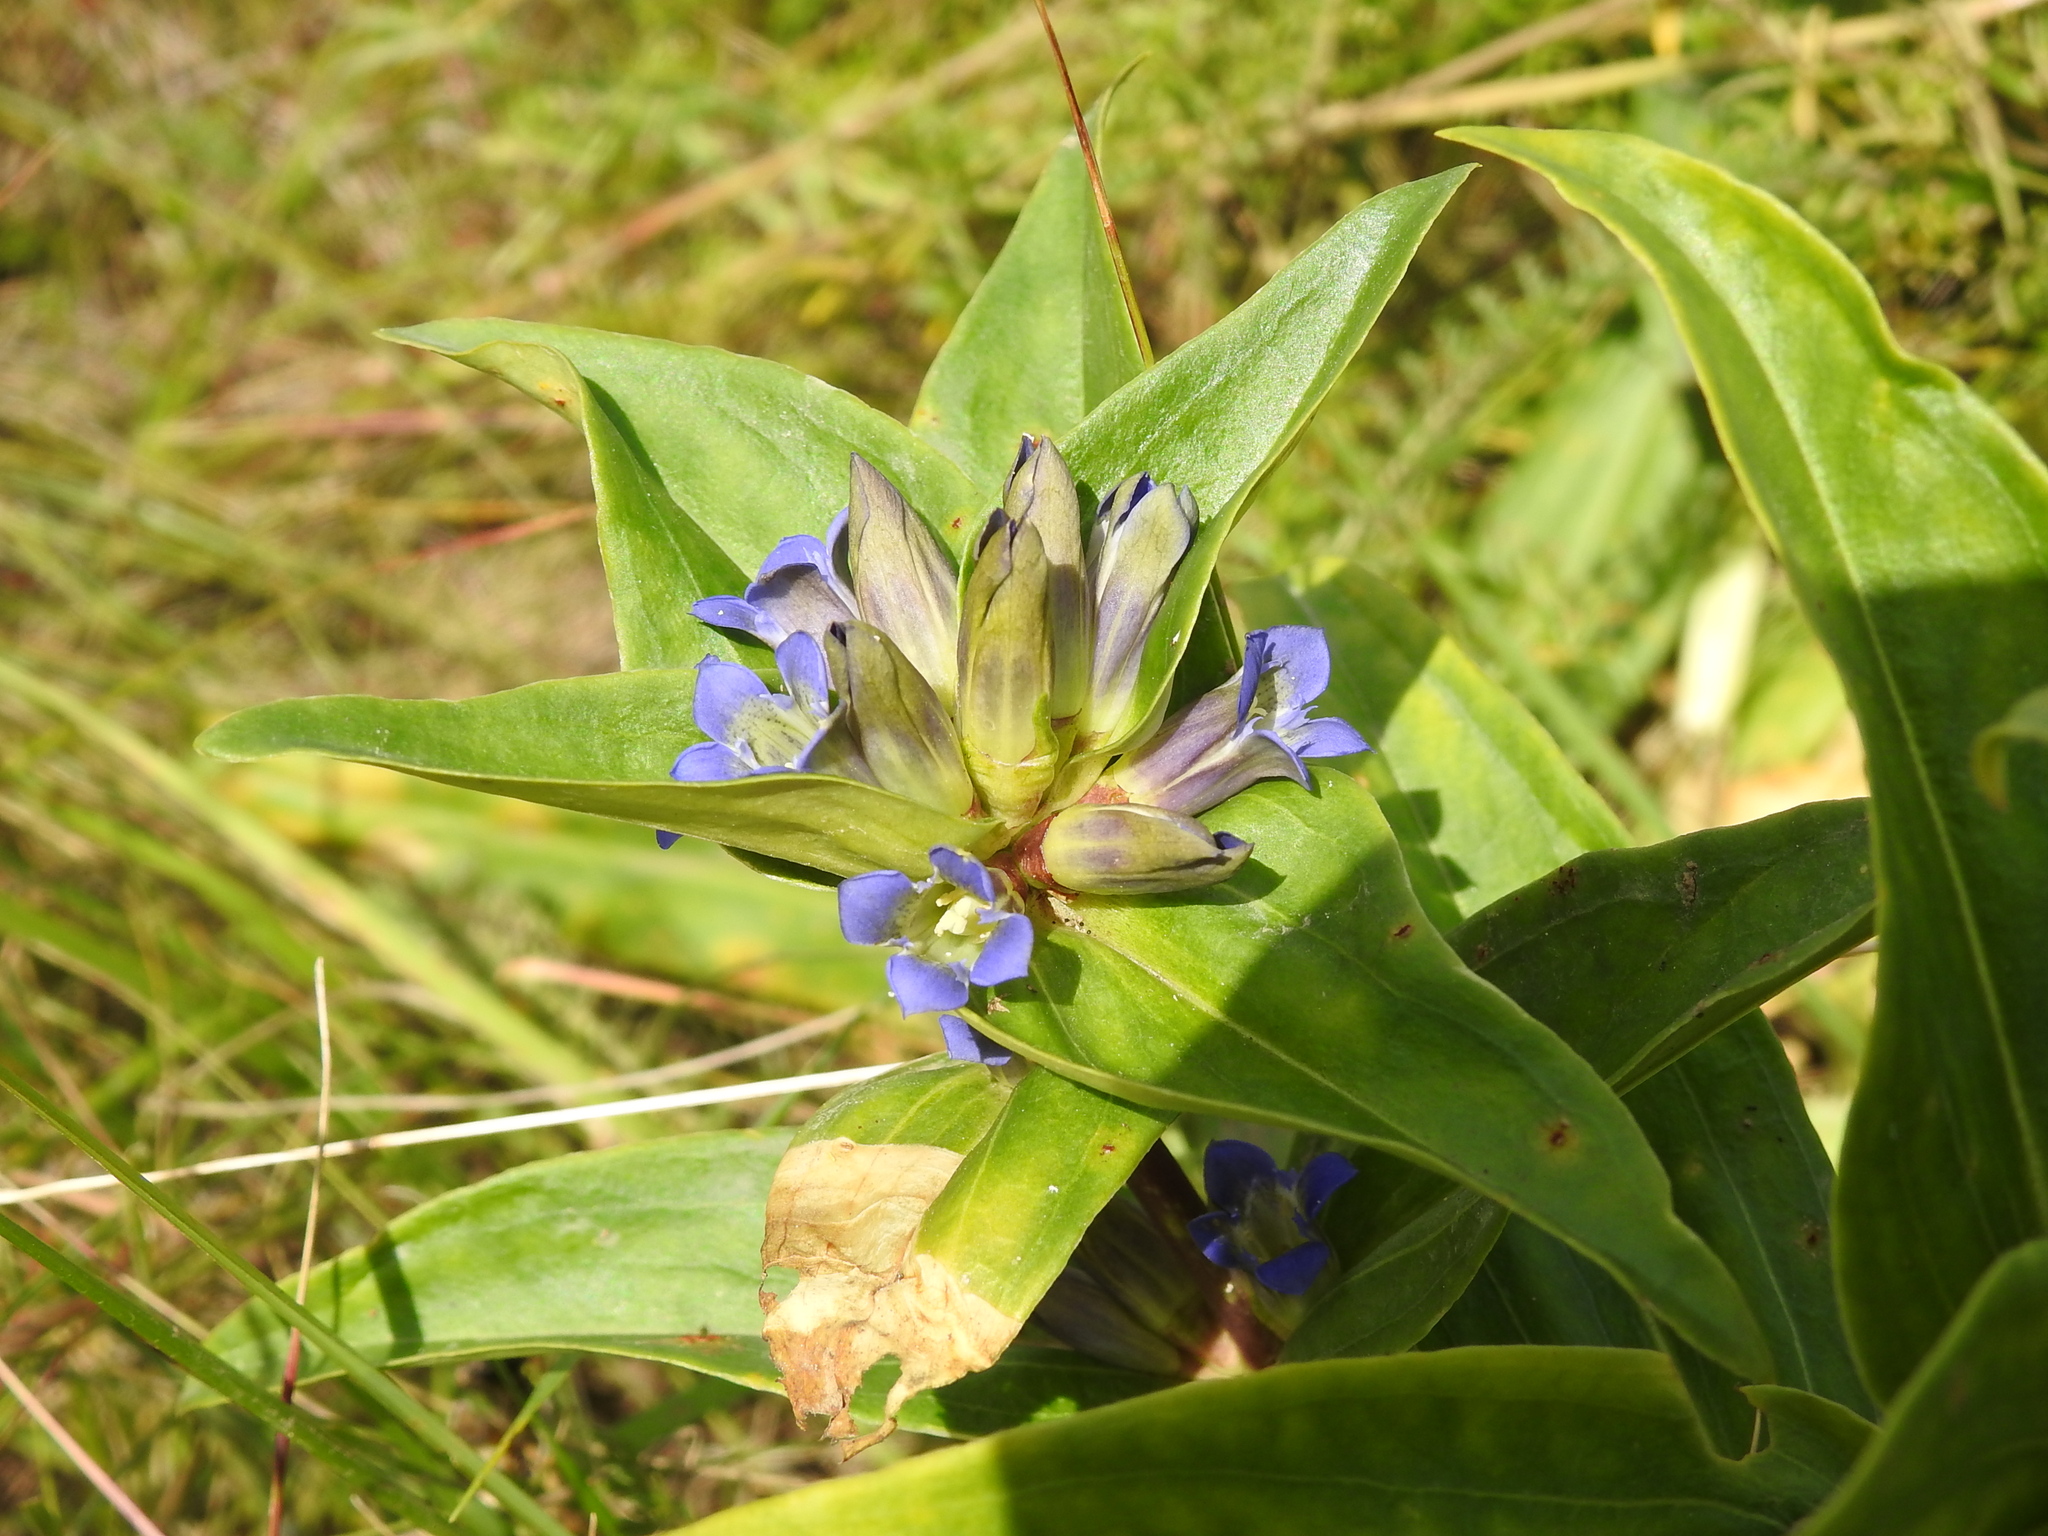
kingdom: Plantae
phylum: Tracheophyta
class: Magnoliopsida
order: Gentianales
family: Gentianaceae
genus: Gentiana
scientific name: Gentiana cruciata
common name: Cross gentian
